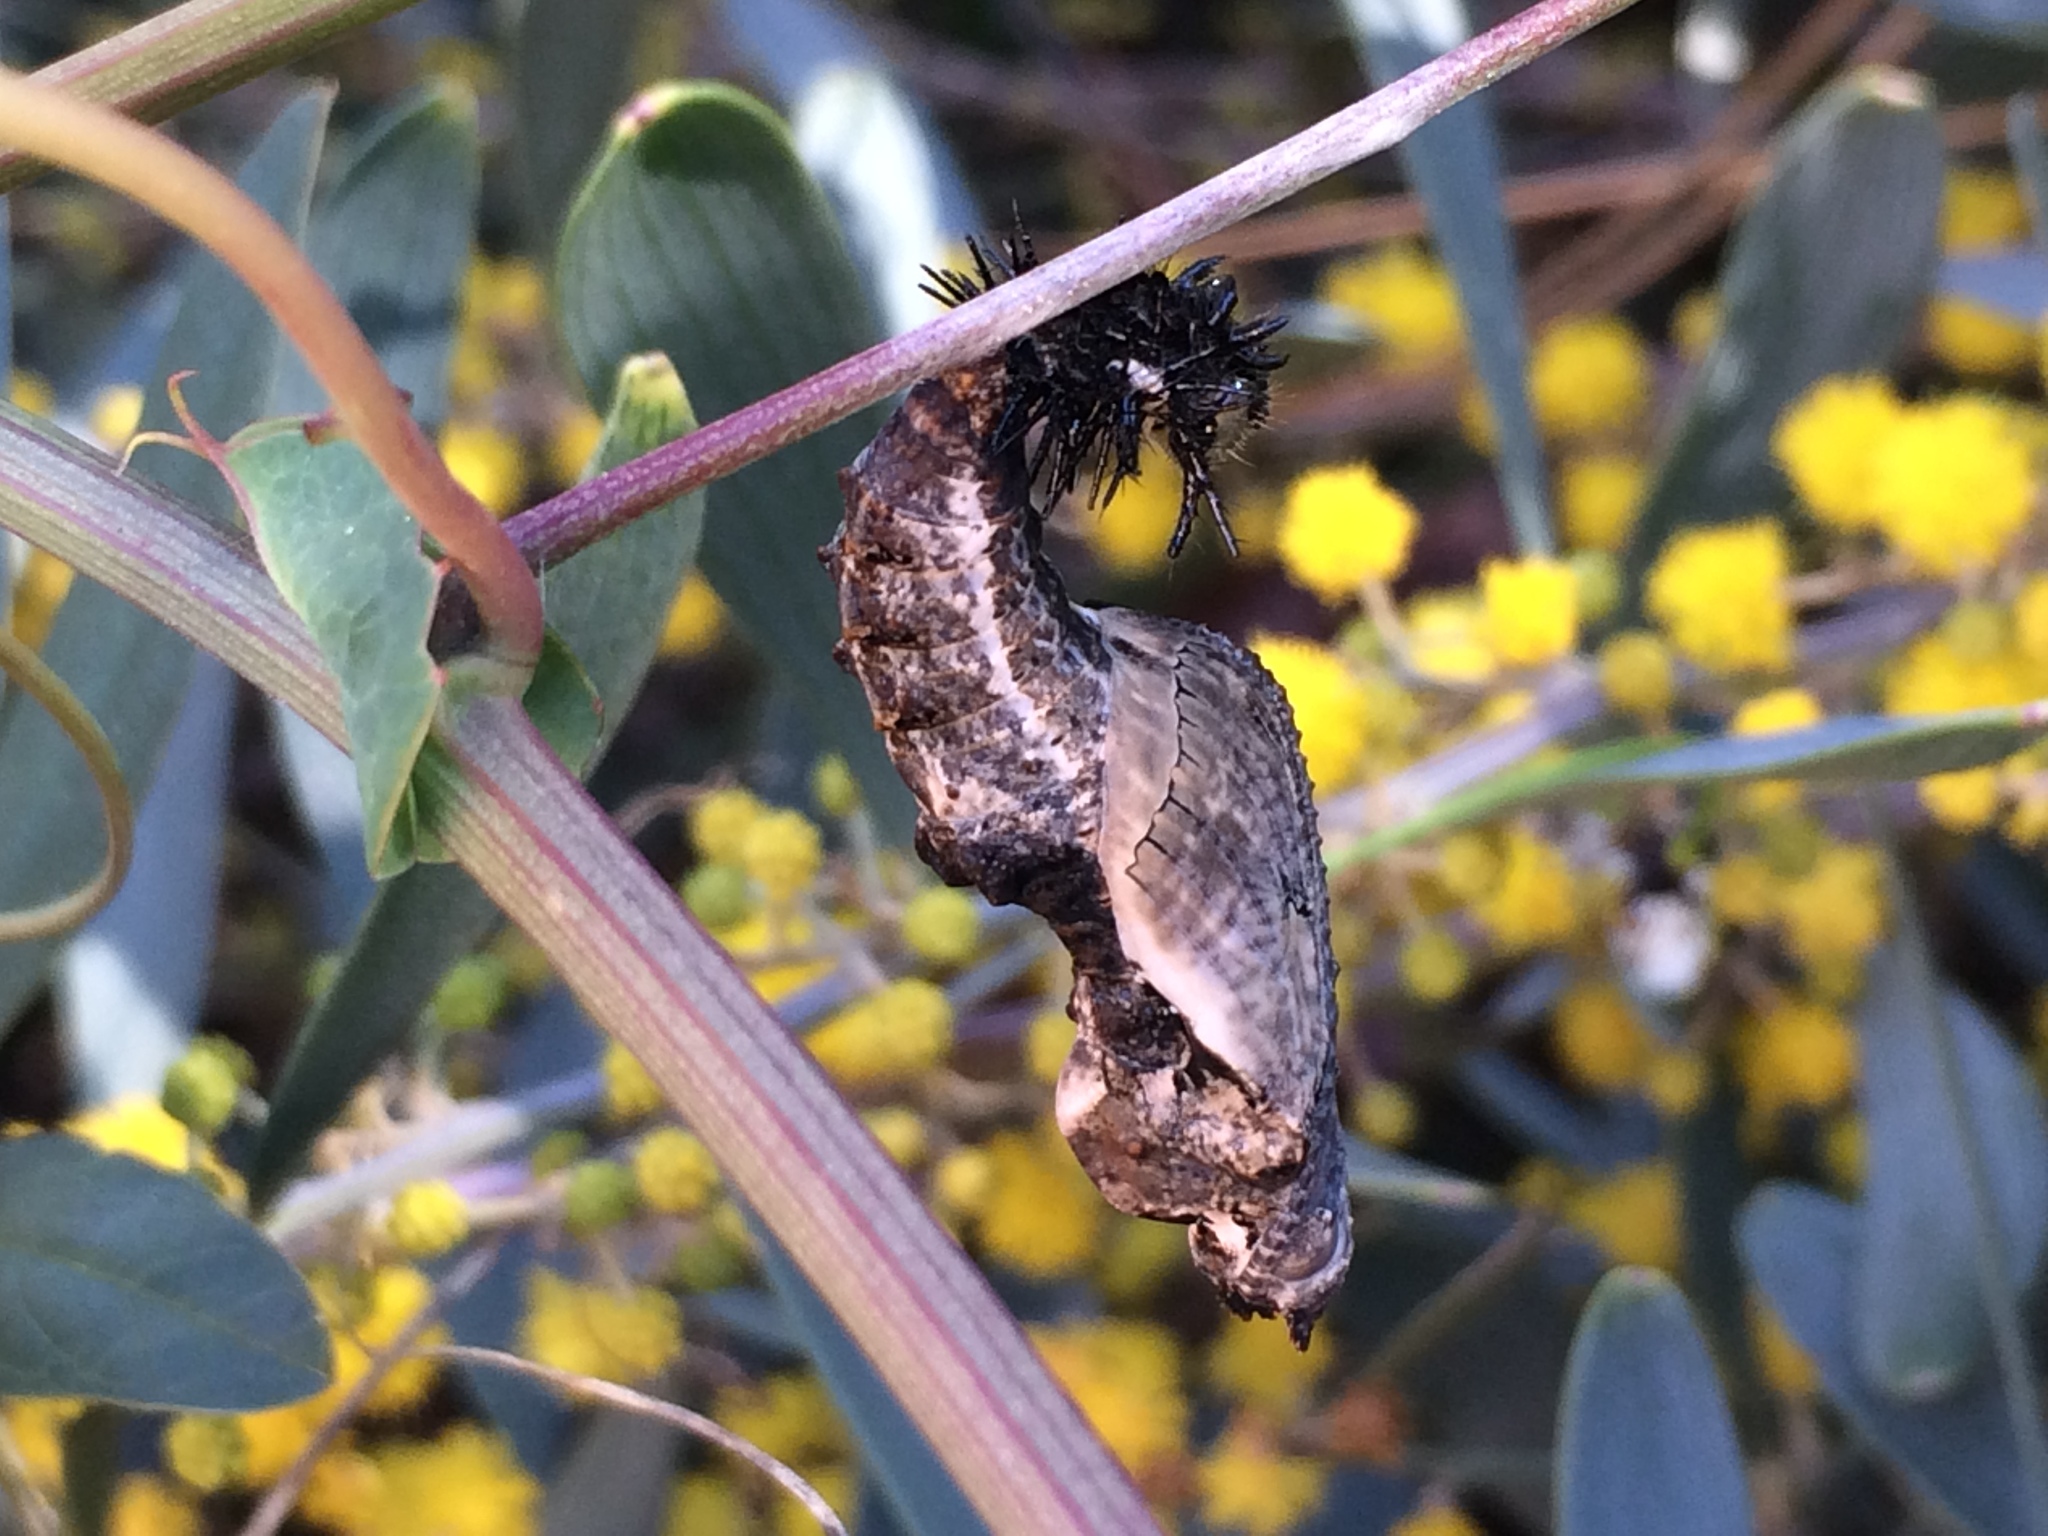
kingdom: Animalia
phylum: Arthropoda
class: Insecta
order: Lepidoptera
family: Nymphalidae
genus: Dione
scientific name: Dione vanillae
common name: Gulf fritillary
